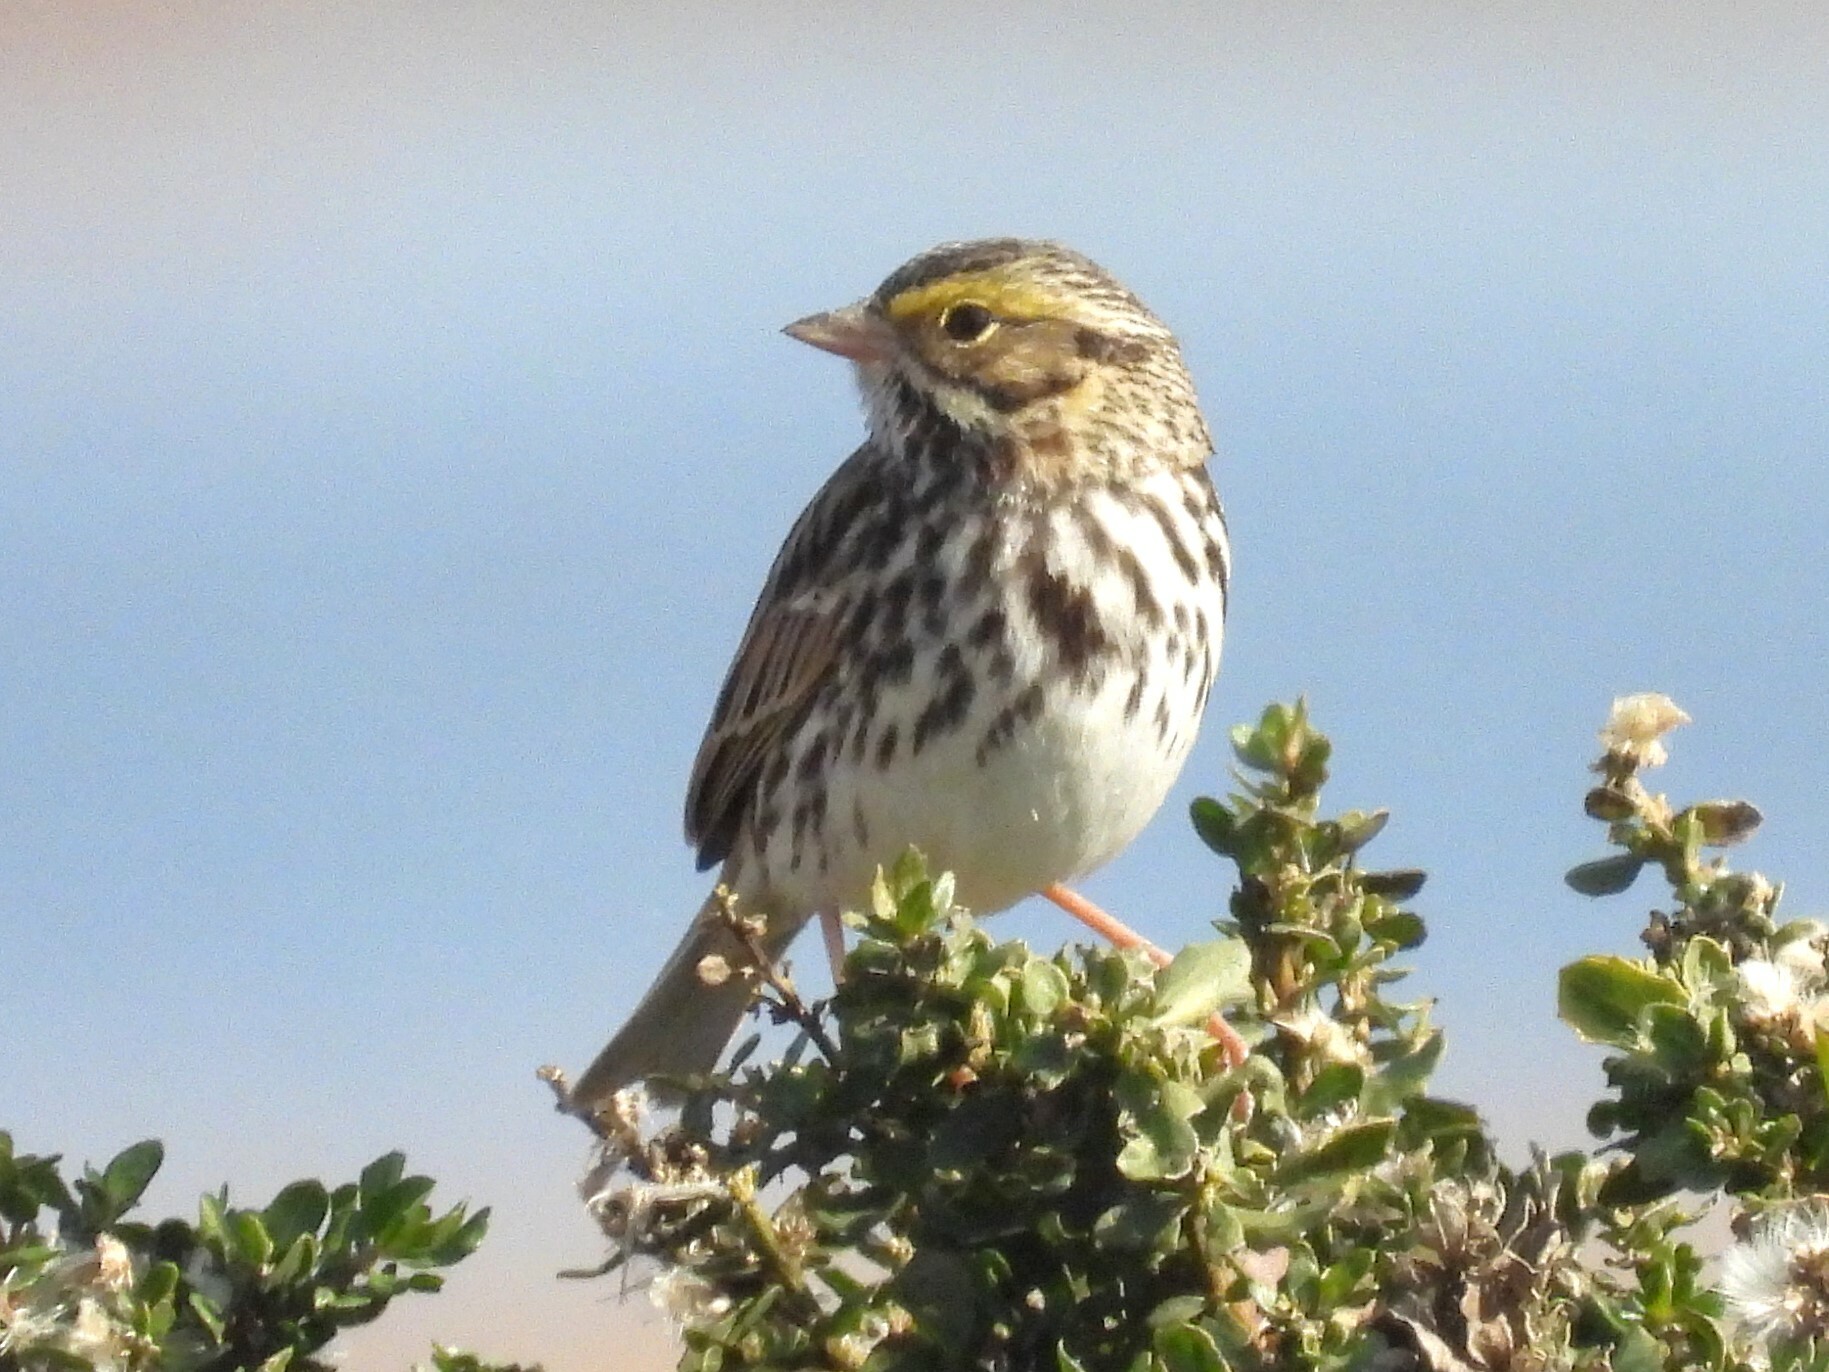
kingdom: Animalia
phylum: Chordata
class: Aves
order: Passeriformes
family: Passerellidae
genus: Passerculus
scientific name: Passerculus sandwichensis
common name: Savannah sparrow
